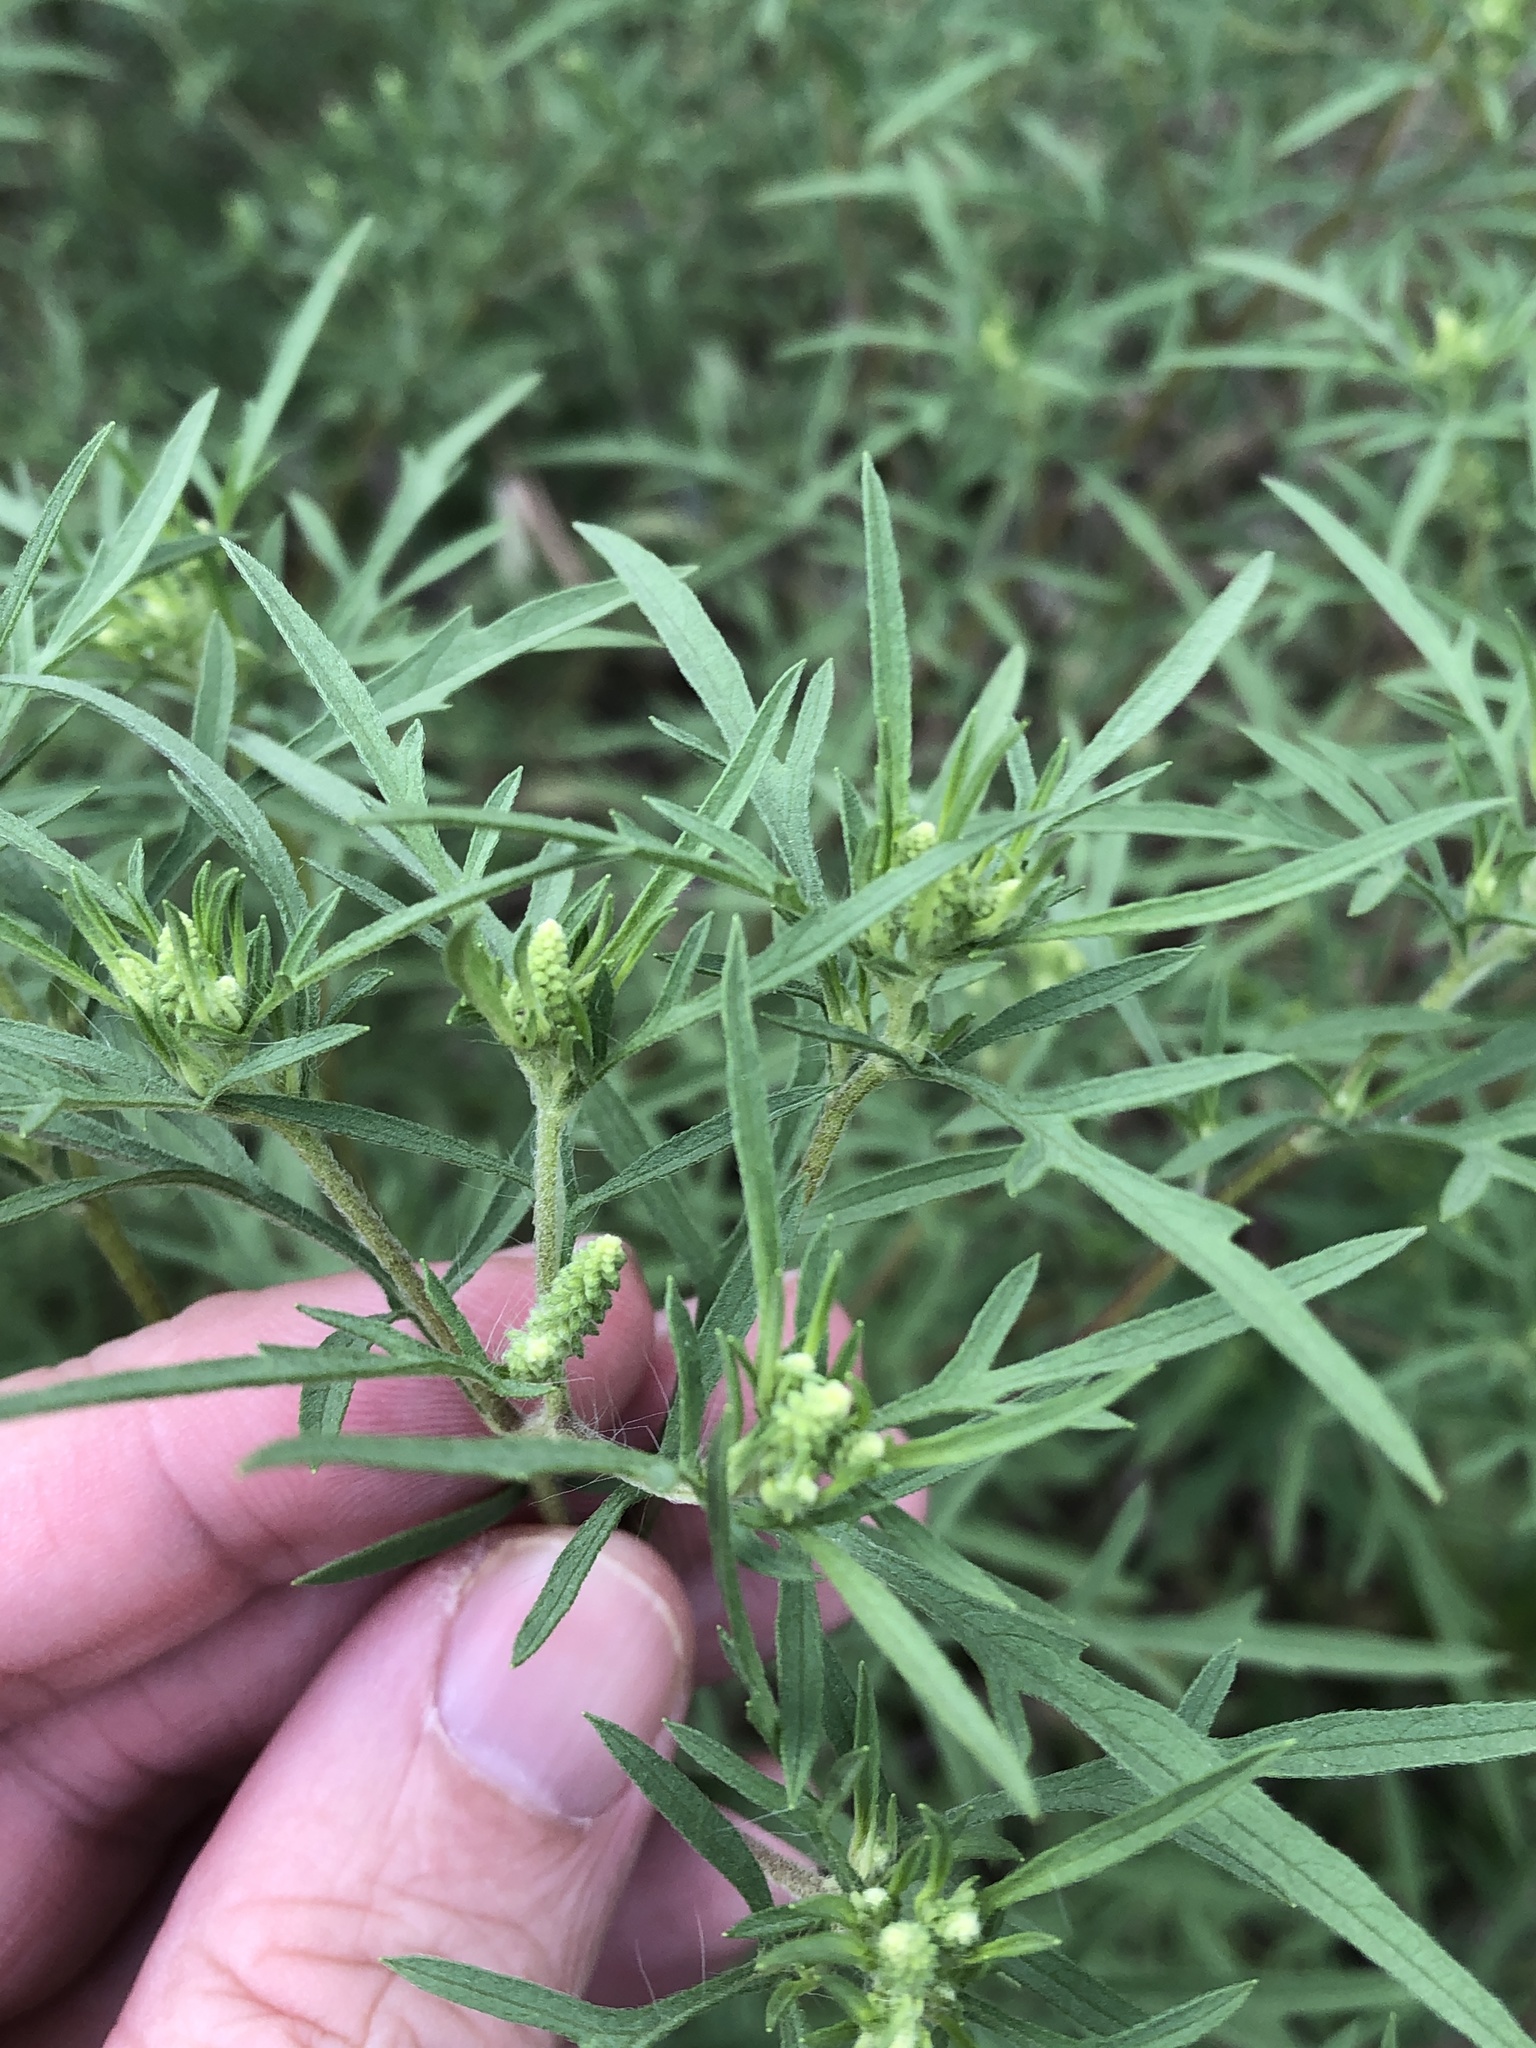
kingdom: Plantae
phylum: Tracheophyta
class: Magnoliopsida
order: Asterales
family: Asteraceae
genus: Ambrosia
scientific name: Ambrosia artemisiifolia
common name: Annual ragweed
